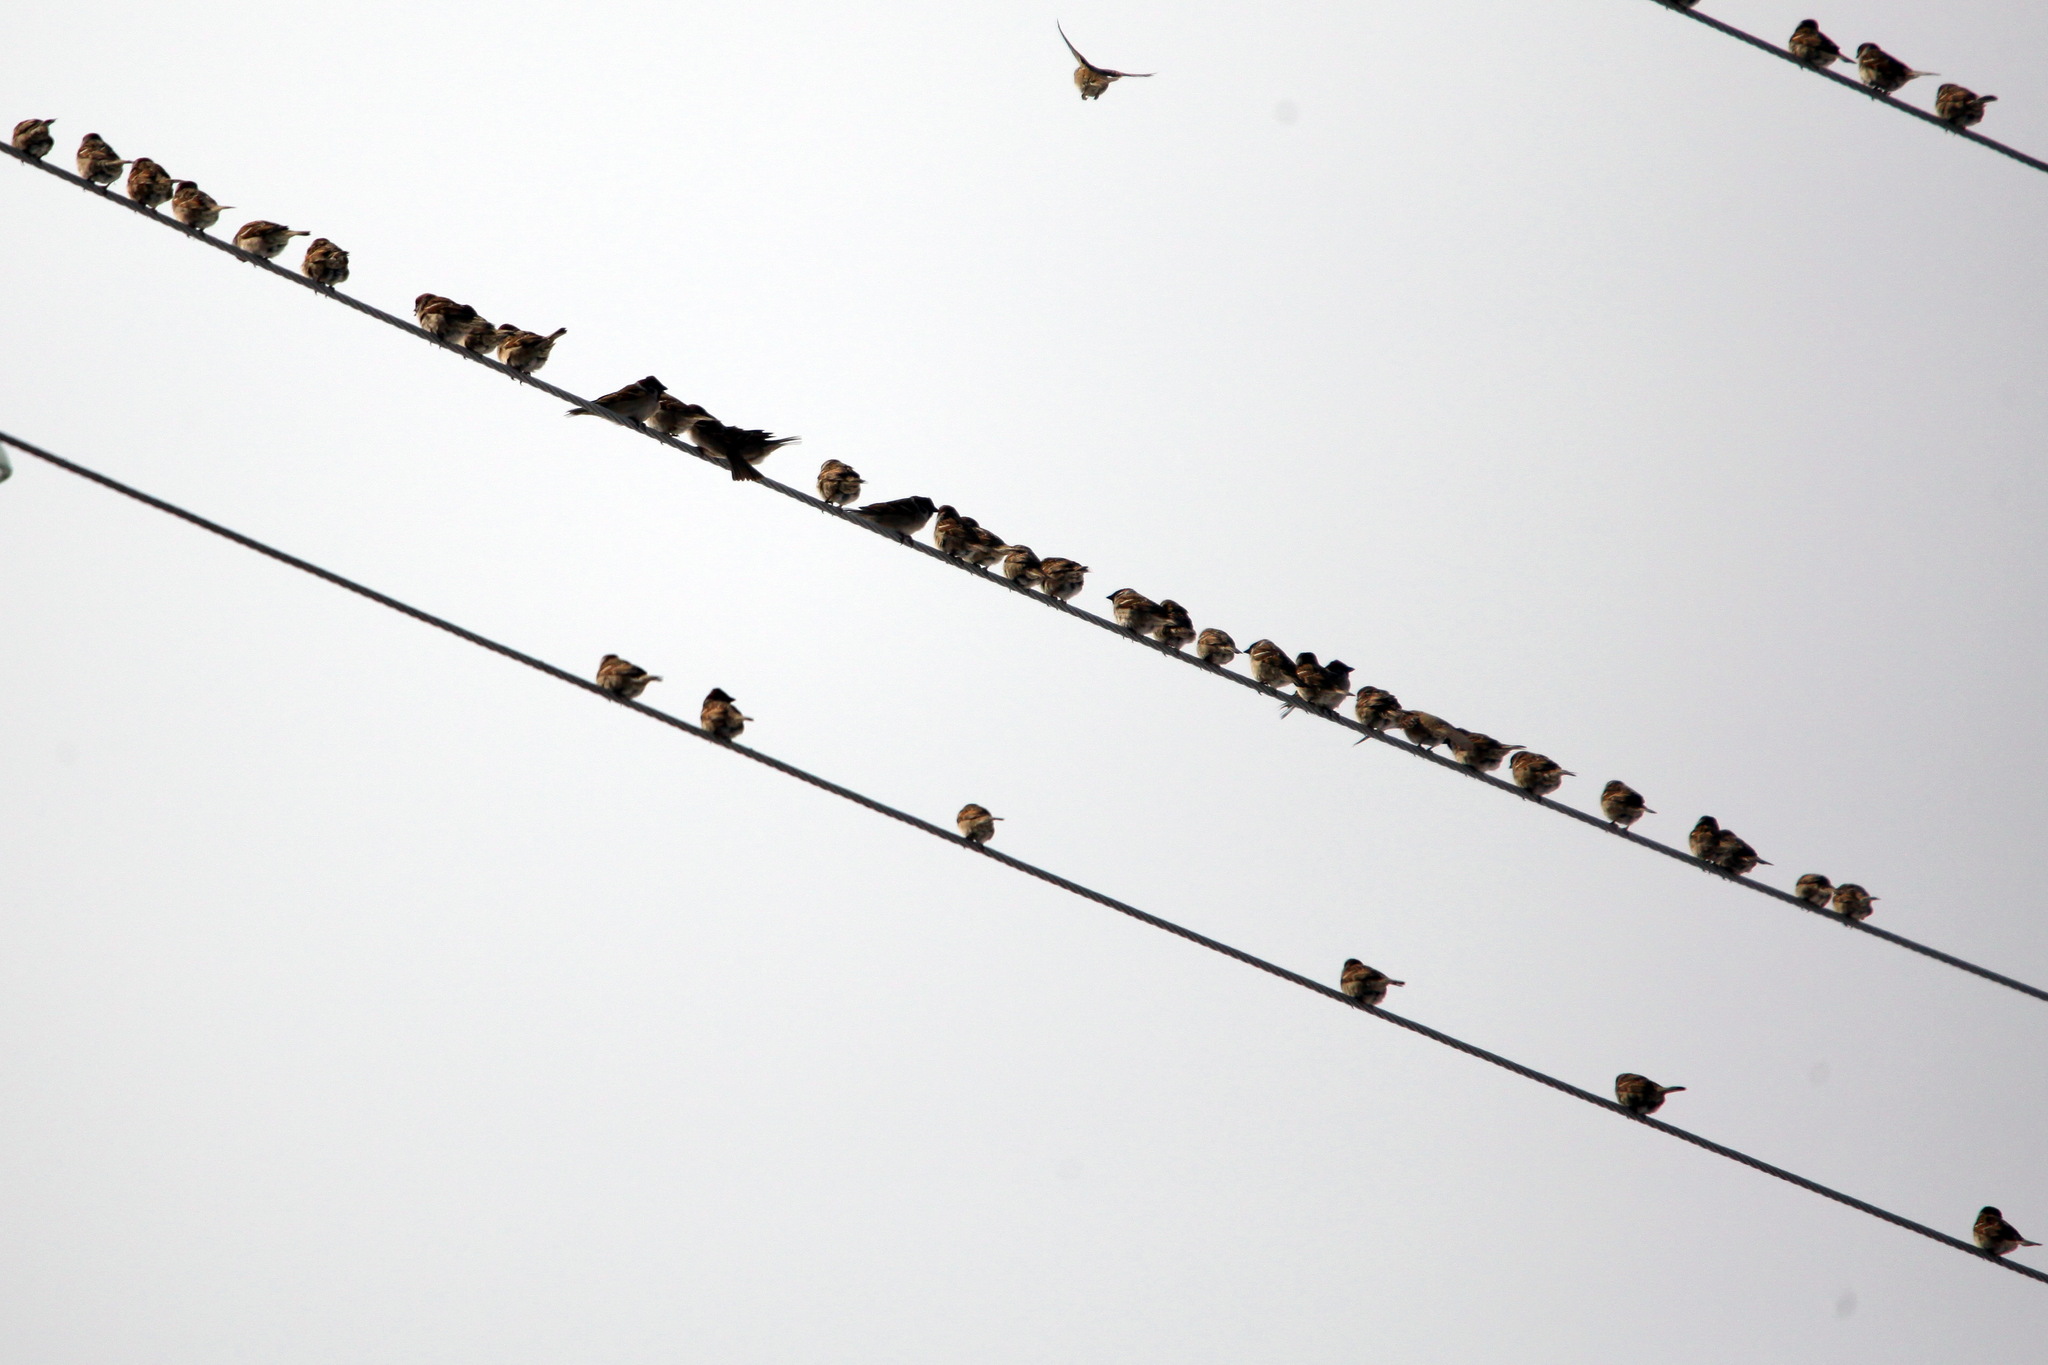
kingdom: Animalia
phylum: Chordata
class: Aves
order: Passeriformes
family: Passeridae
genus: Passer
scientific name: Passer montanus
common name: Eurasian tree sparrow
